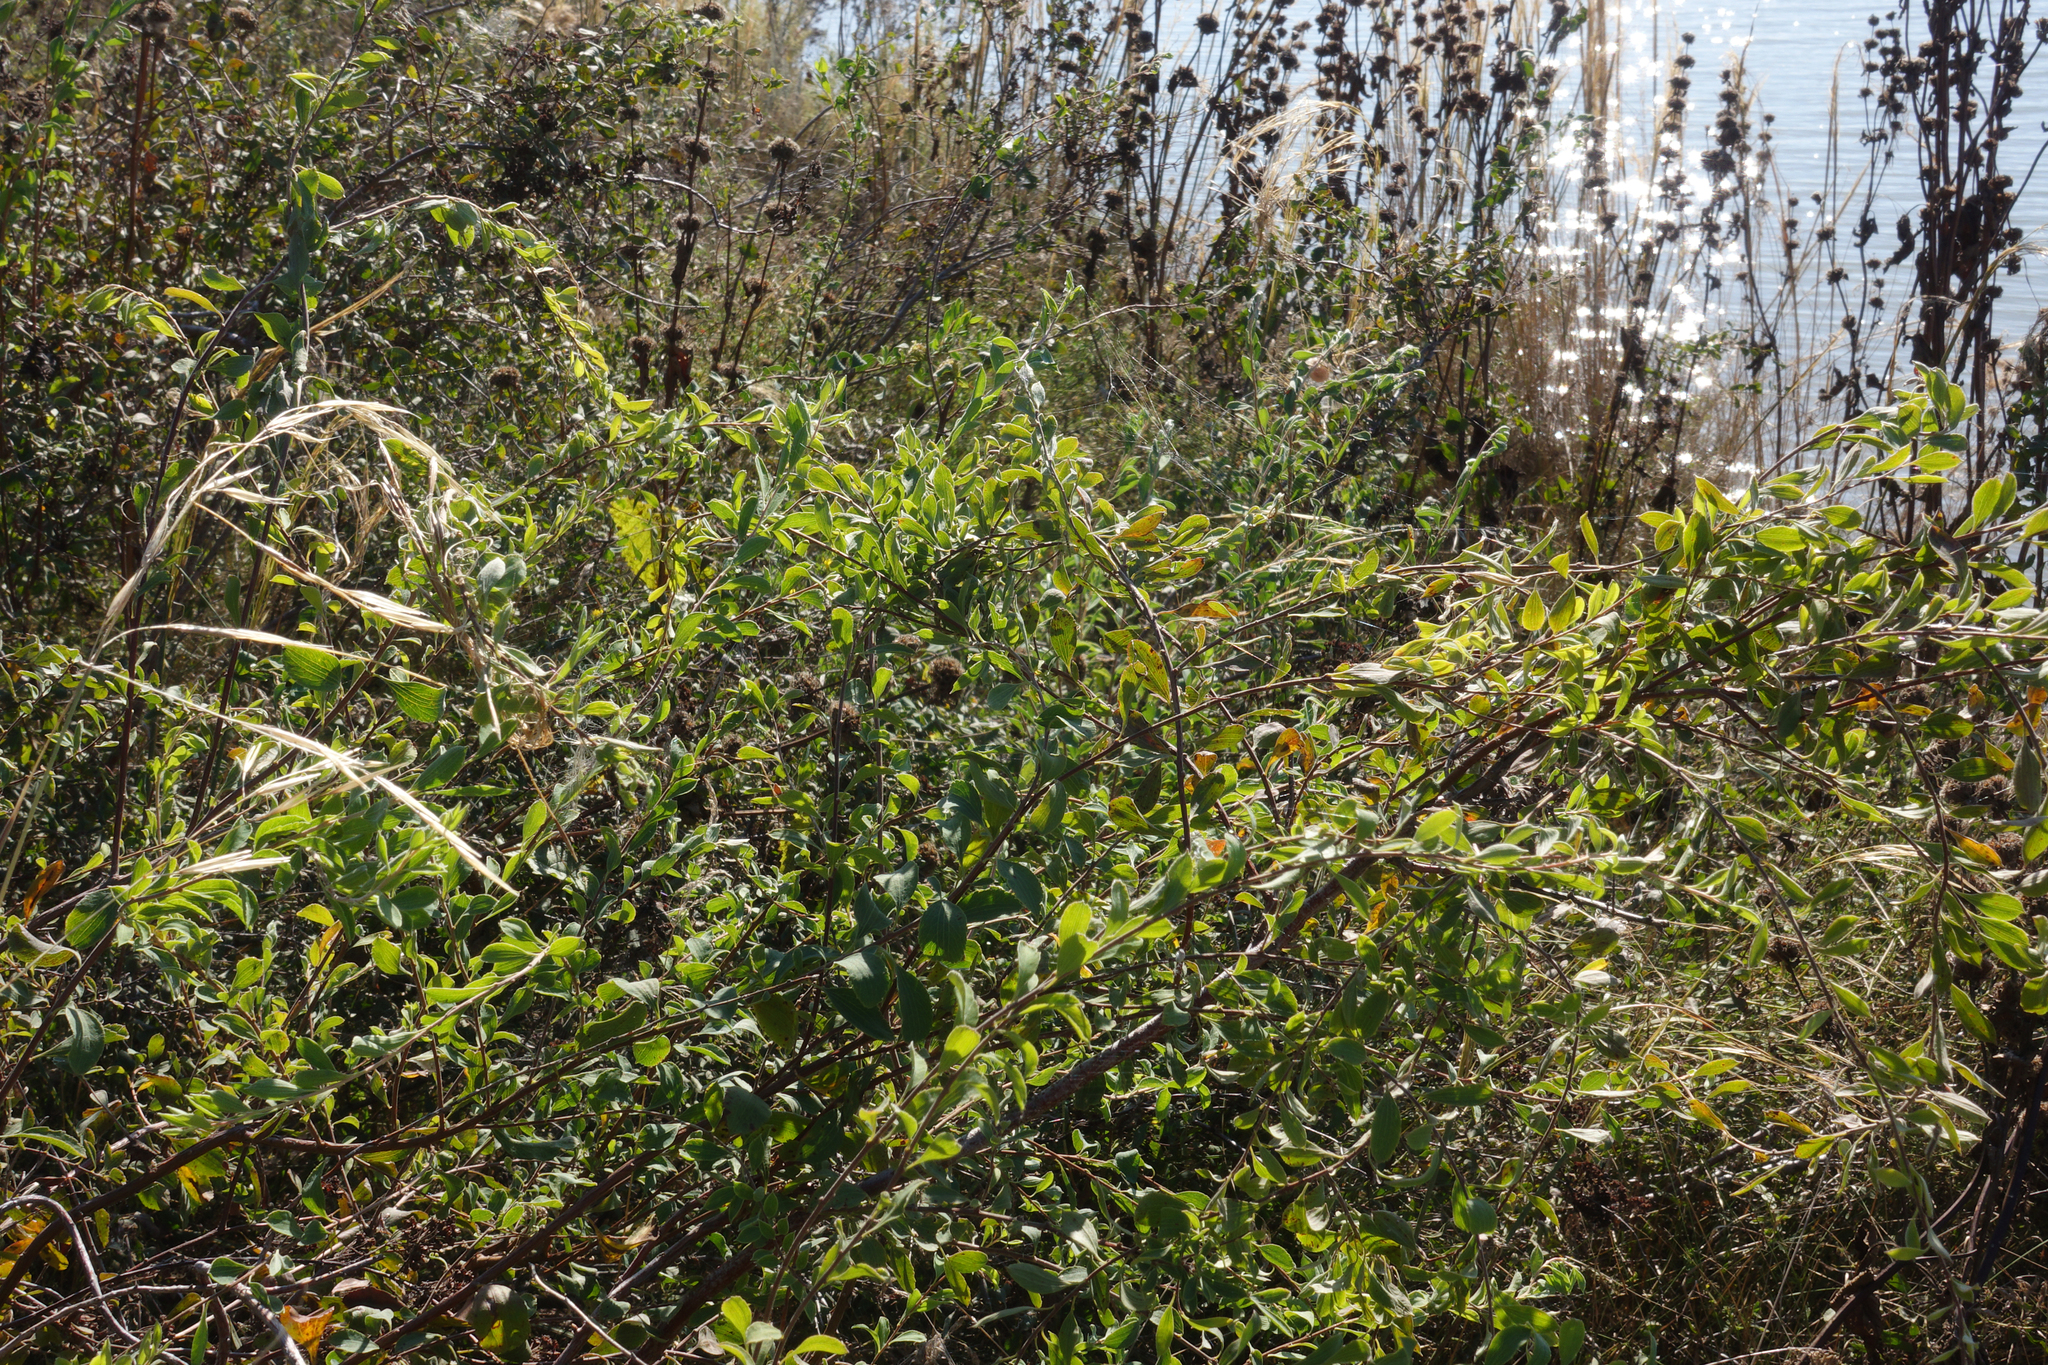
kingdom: Plantae
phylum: Tracheophyta
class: Magnoliopsida
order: Rosales
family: Rosaceae
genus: Spiraea
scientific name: Spiraea crenata
